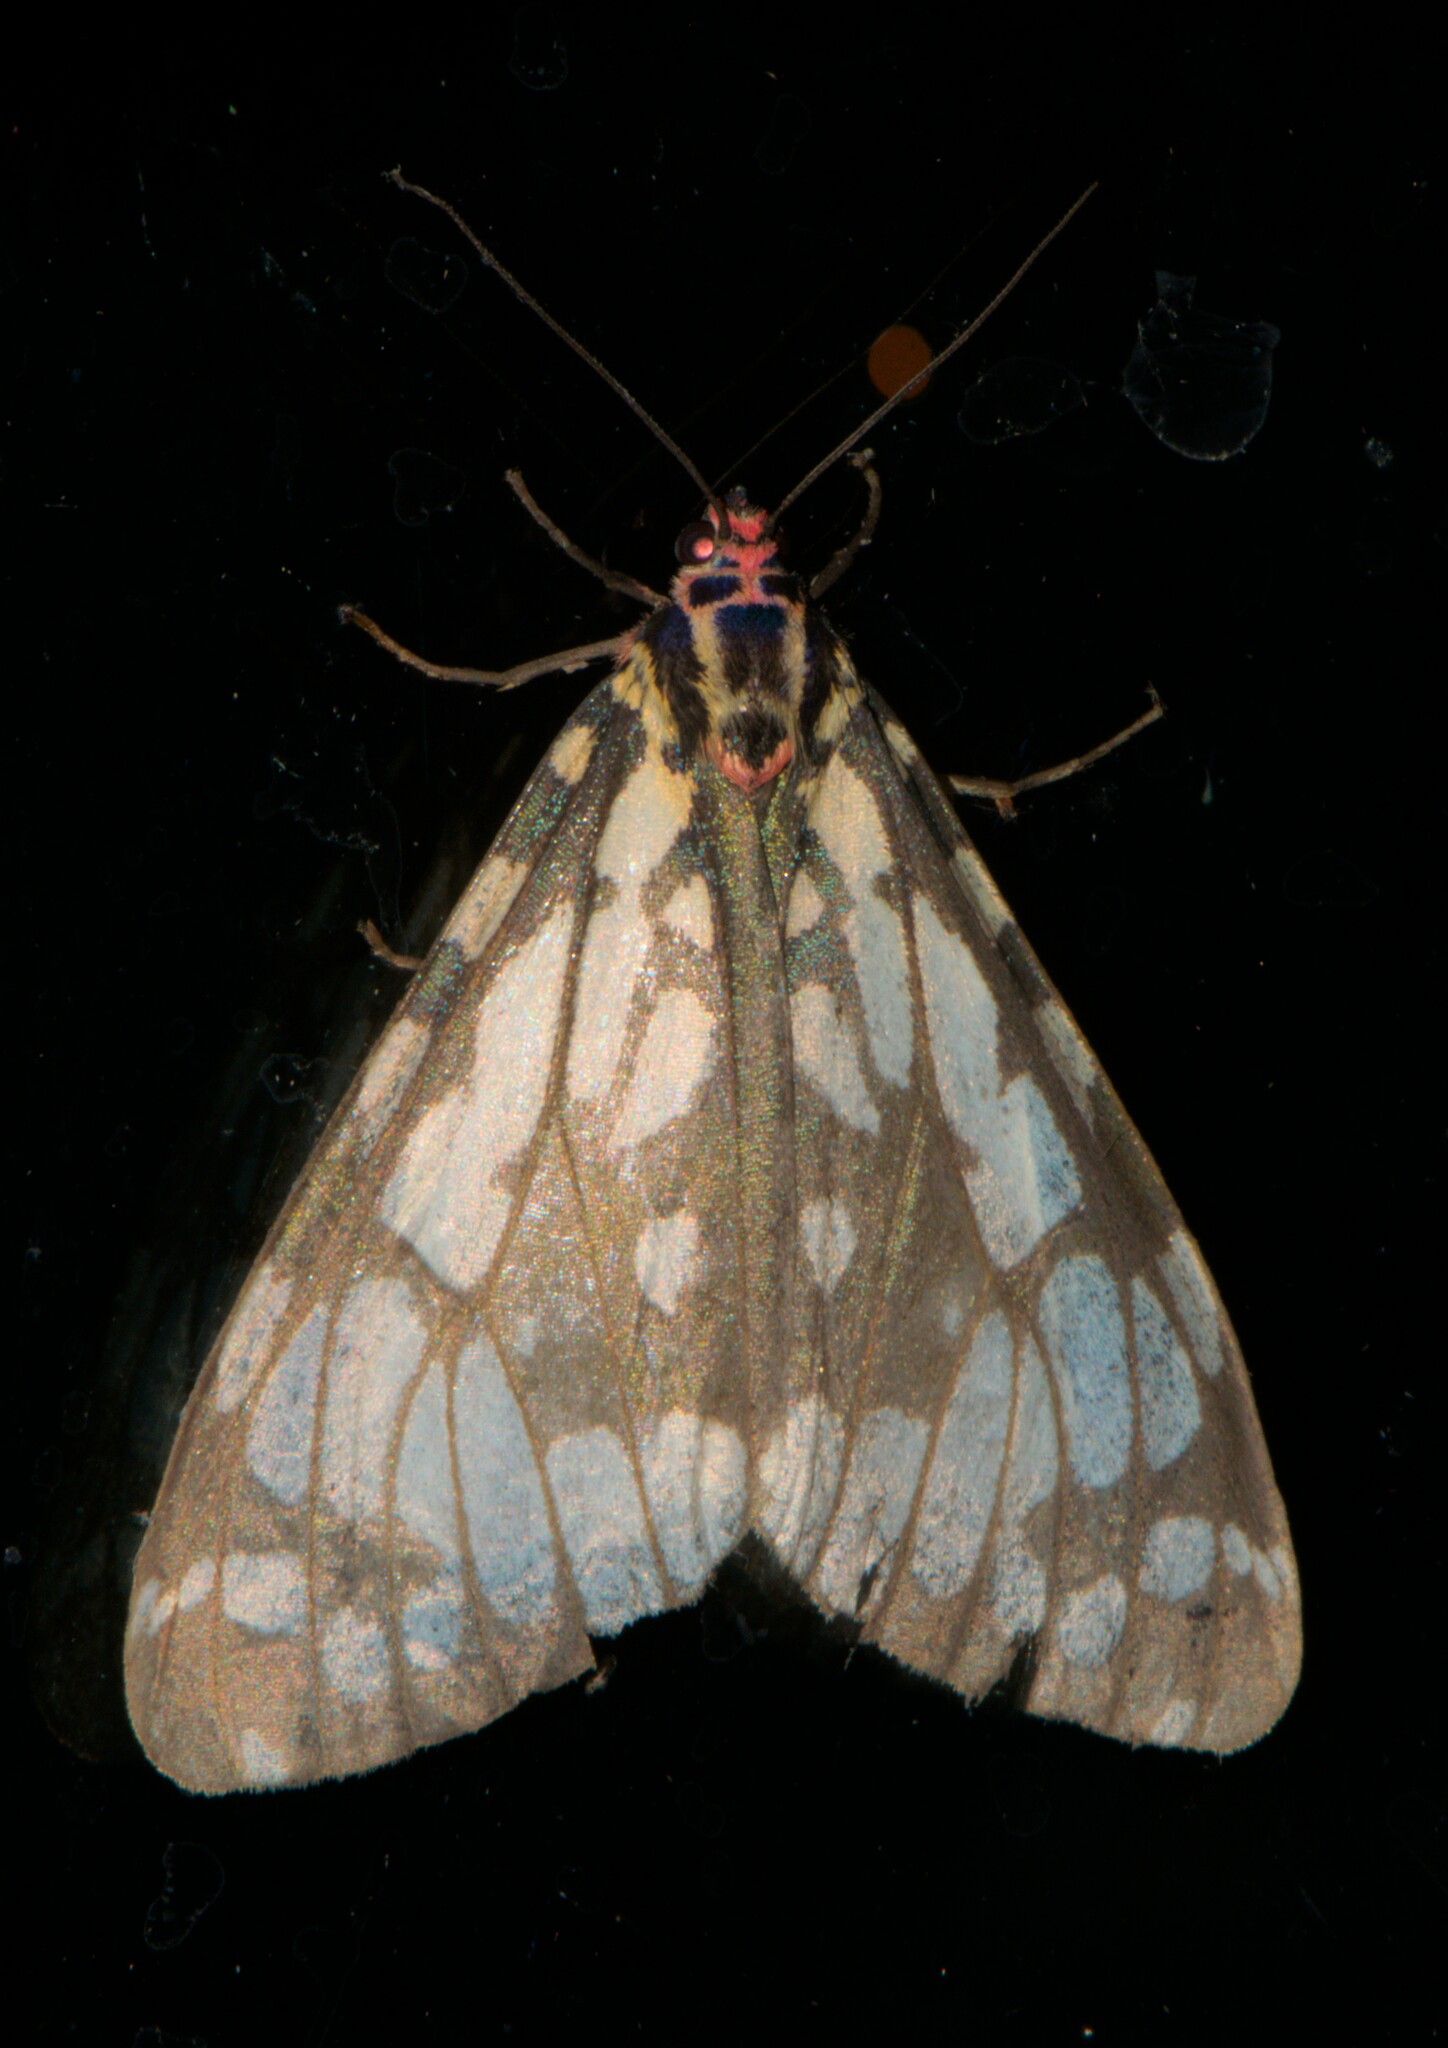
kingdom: Animalia
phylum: Arthropoda
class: Insecta
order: Lepidoptera
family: Erebidae
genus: Callindra
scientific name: Callindra equitalis
